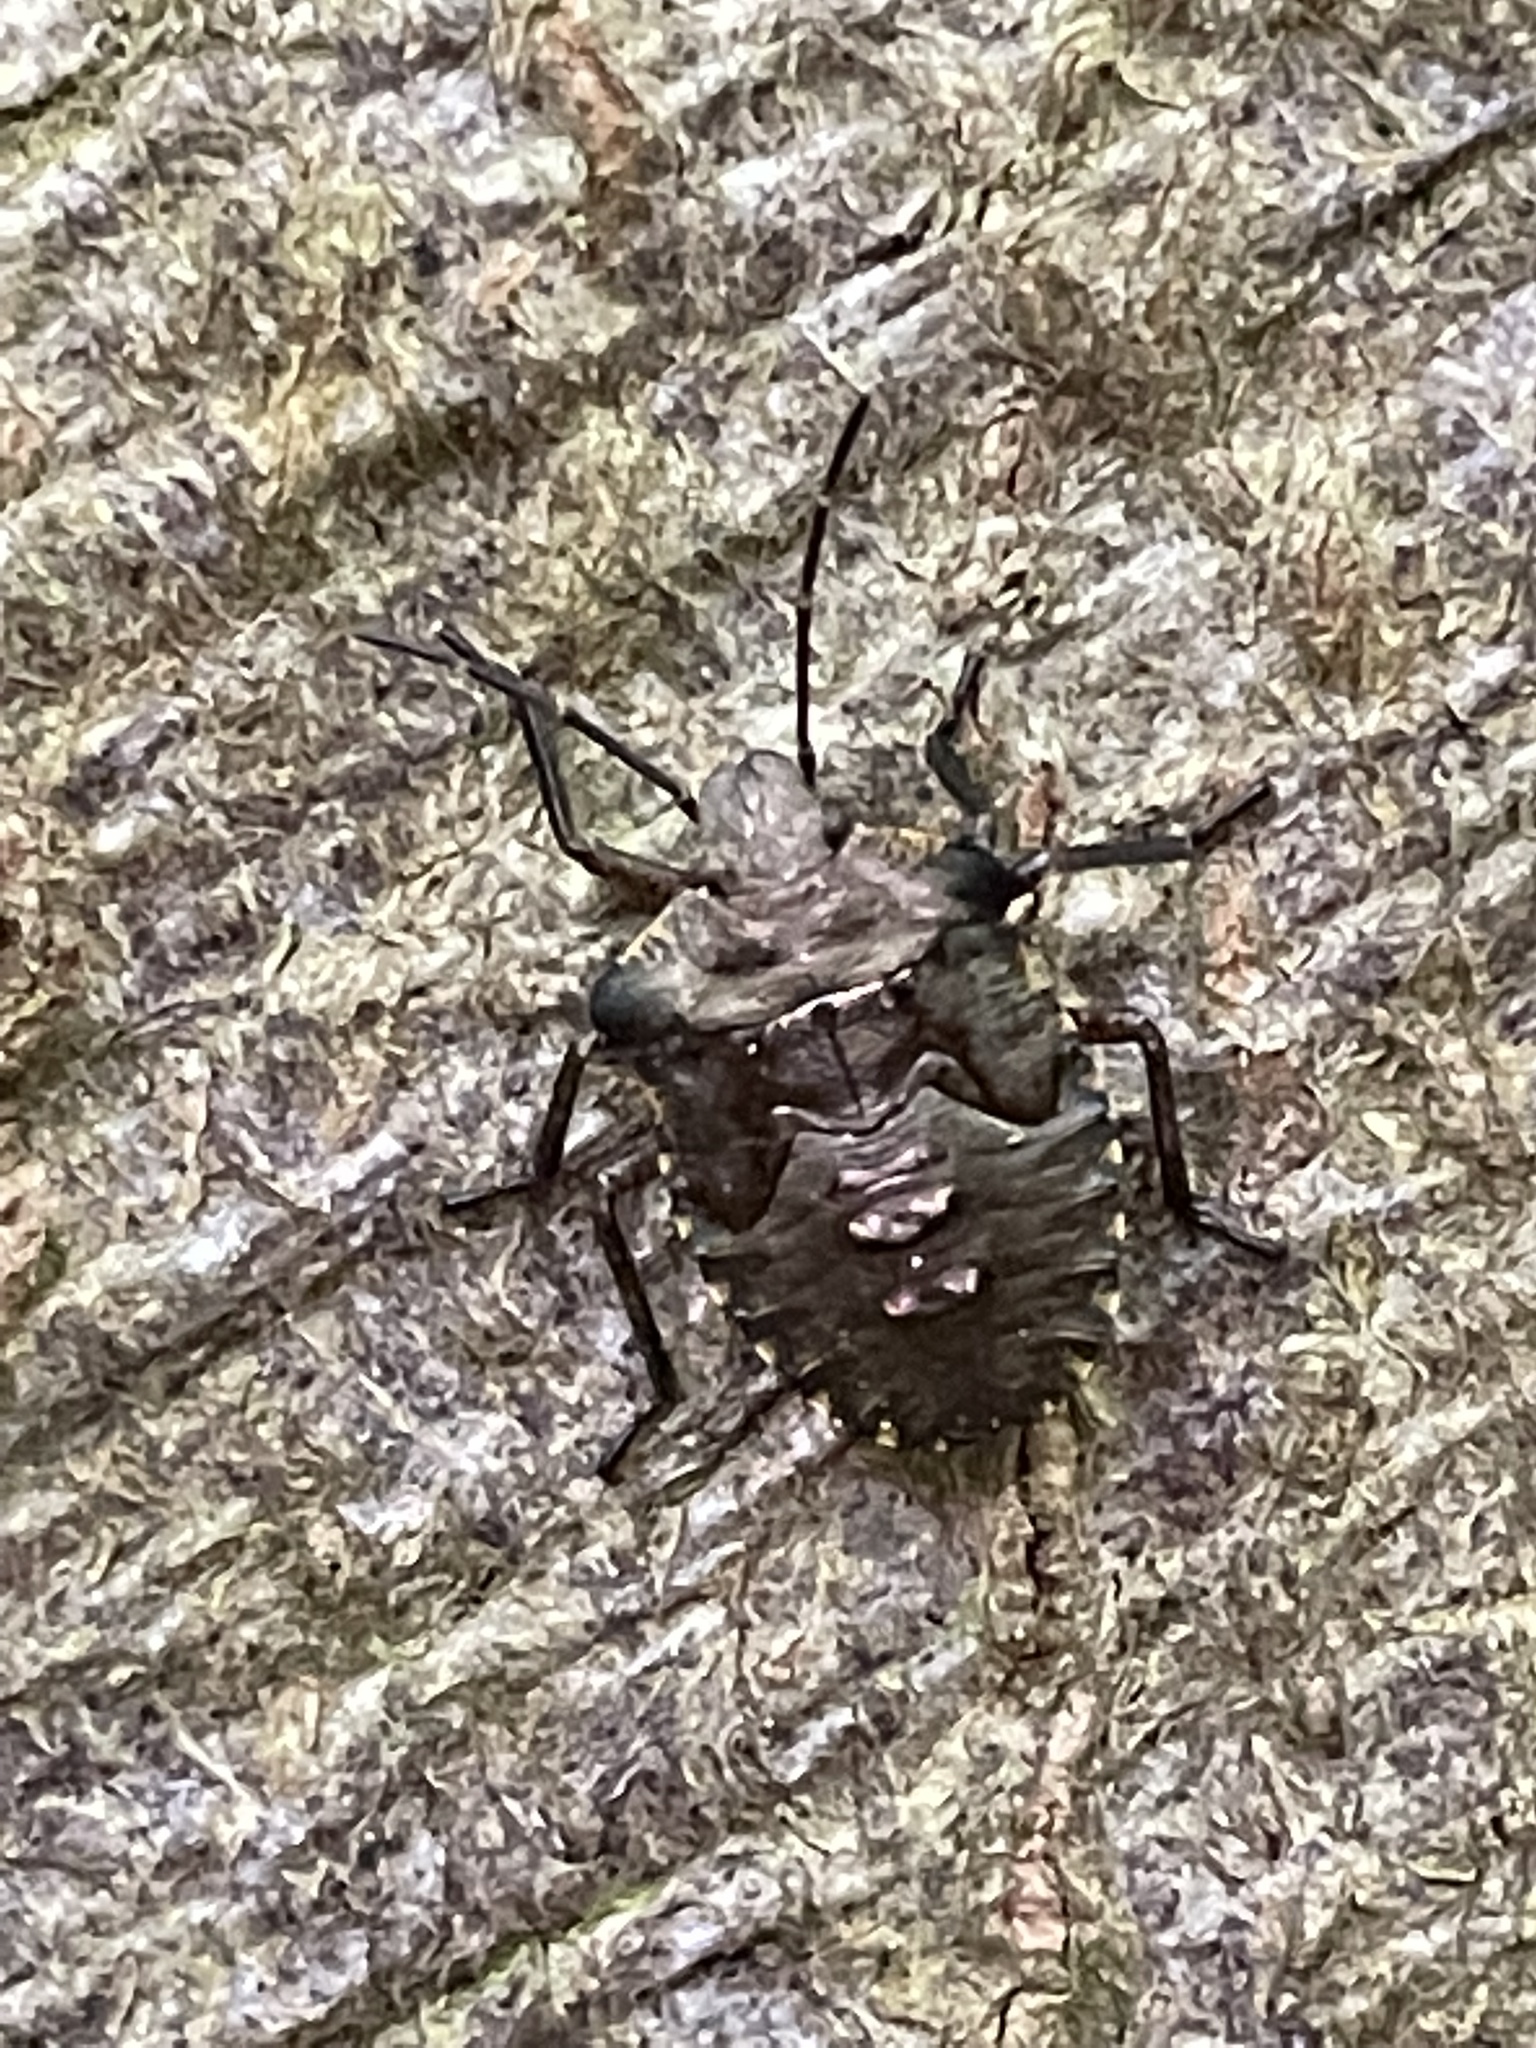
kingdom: Animalia
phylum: Arthropoda
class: Insecta
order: Hemiptera
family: Pentatomidae
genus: Pentatoma
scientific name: Pentatoma rufipes
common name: Forest bug
